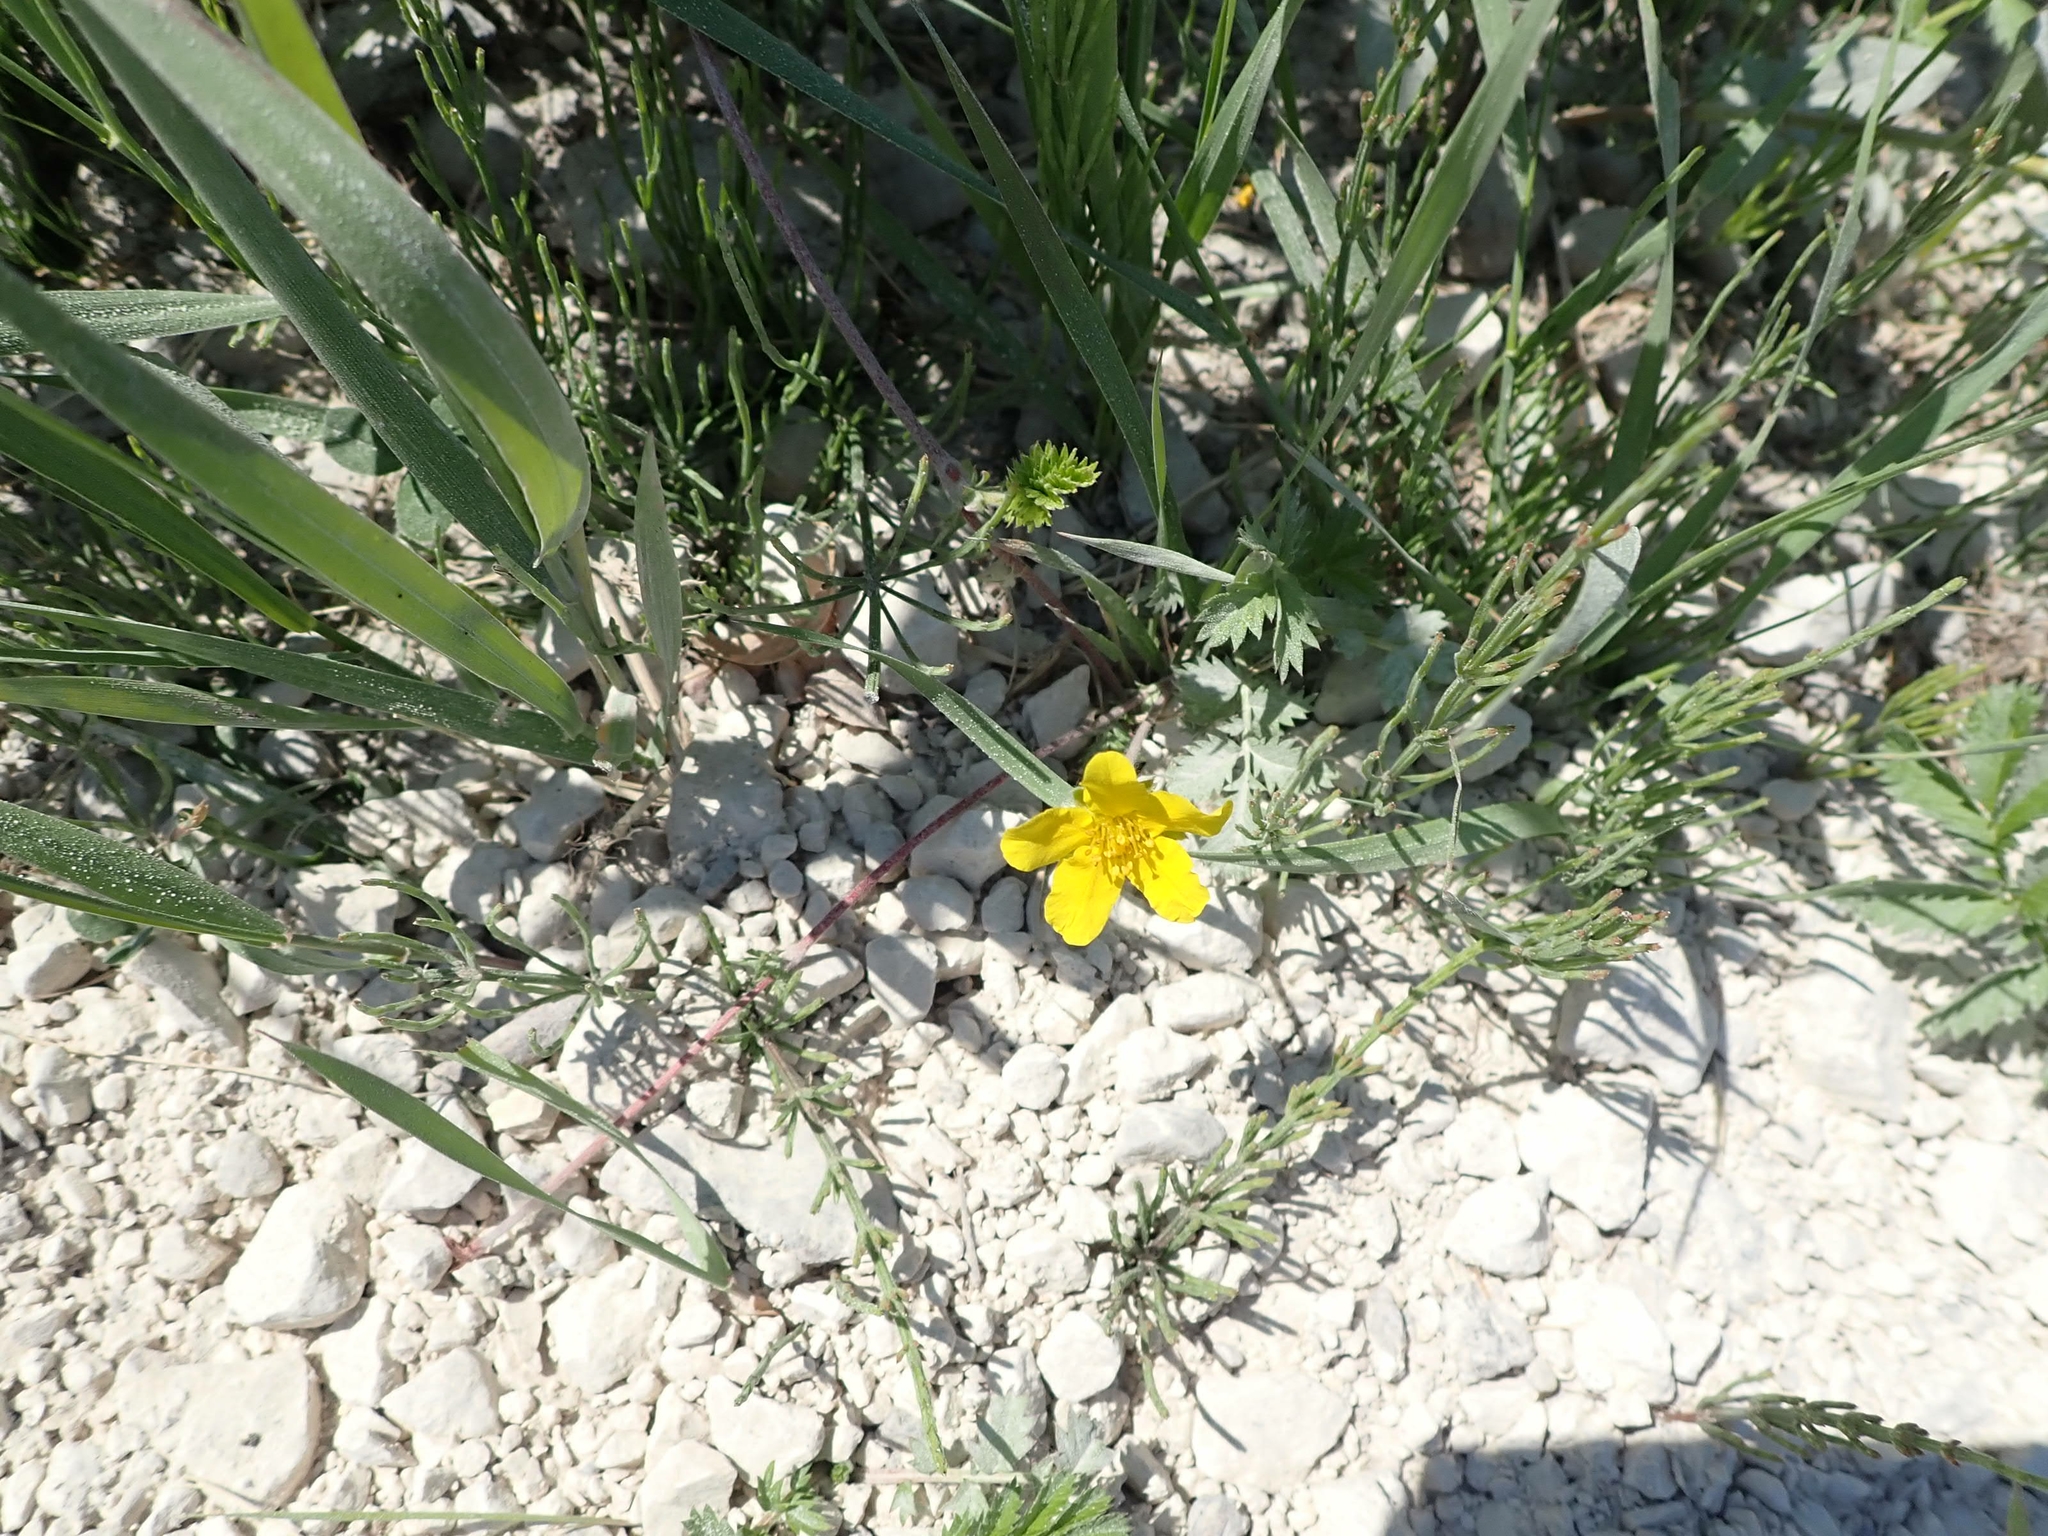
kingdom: Plantae
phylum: Tracheophyta
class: Magnoliopsida
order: Rosales
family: Rosaceae
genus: Argentina
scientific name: Argentina anserina
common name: Common silverweed
